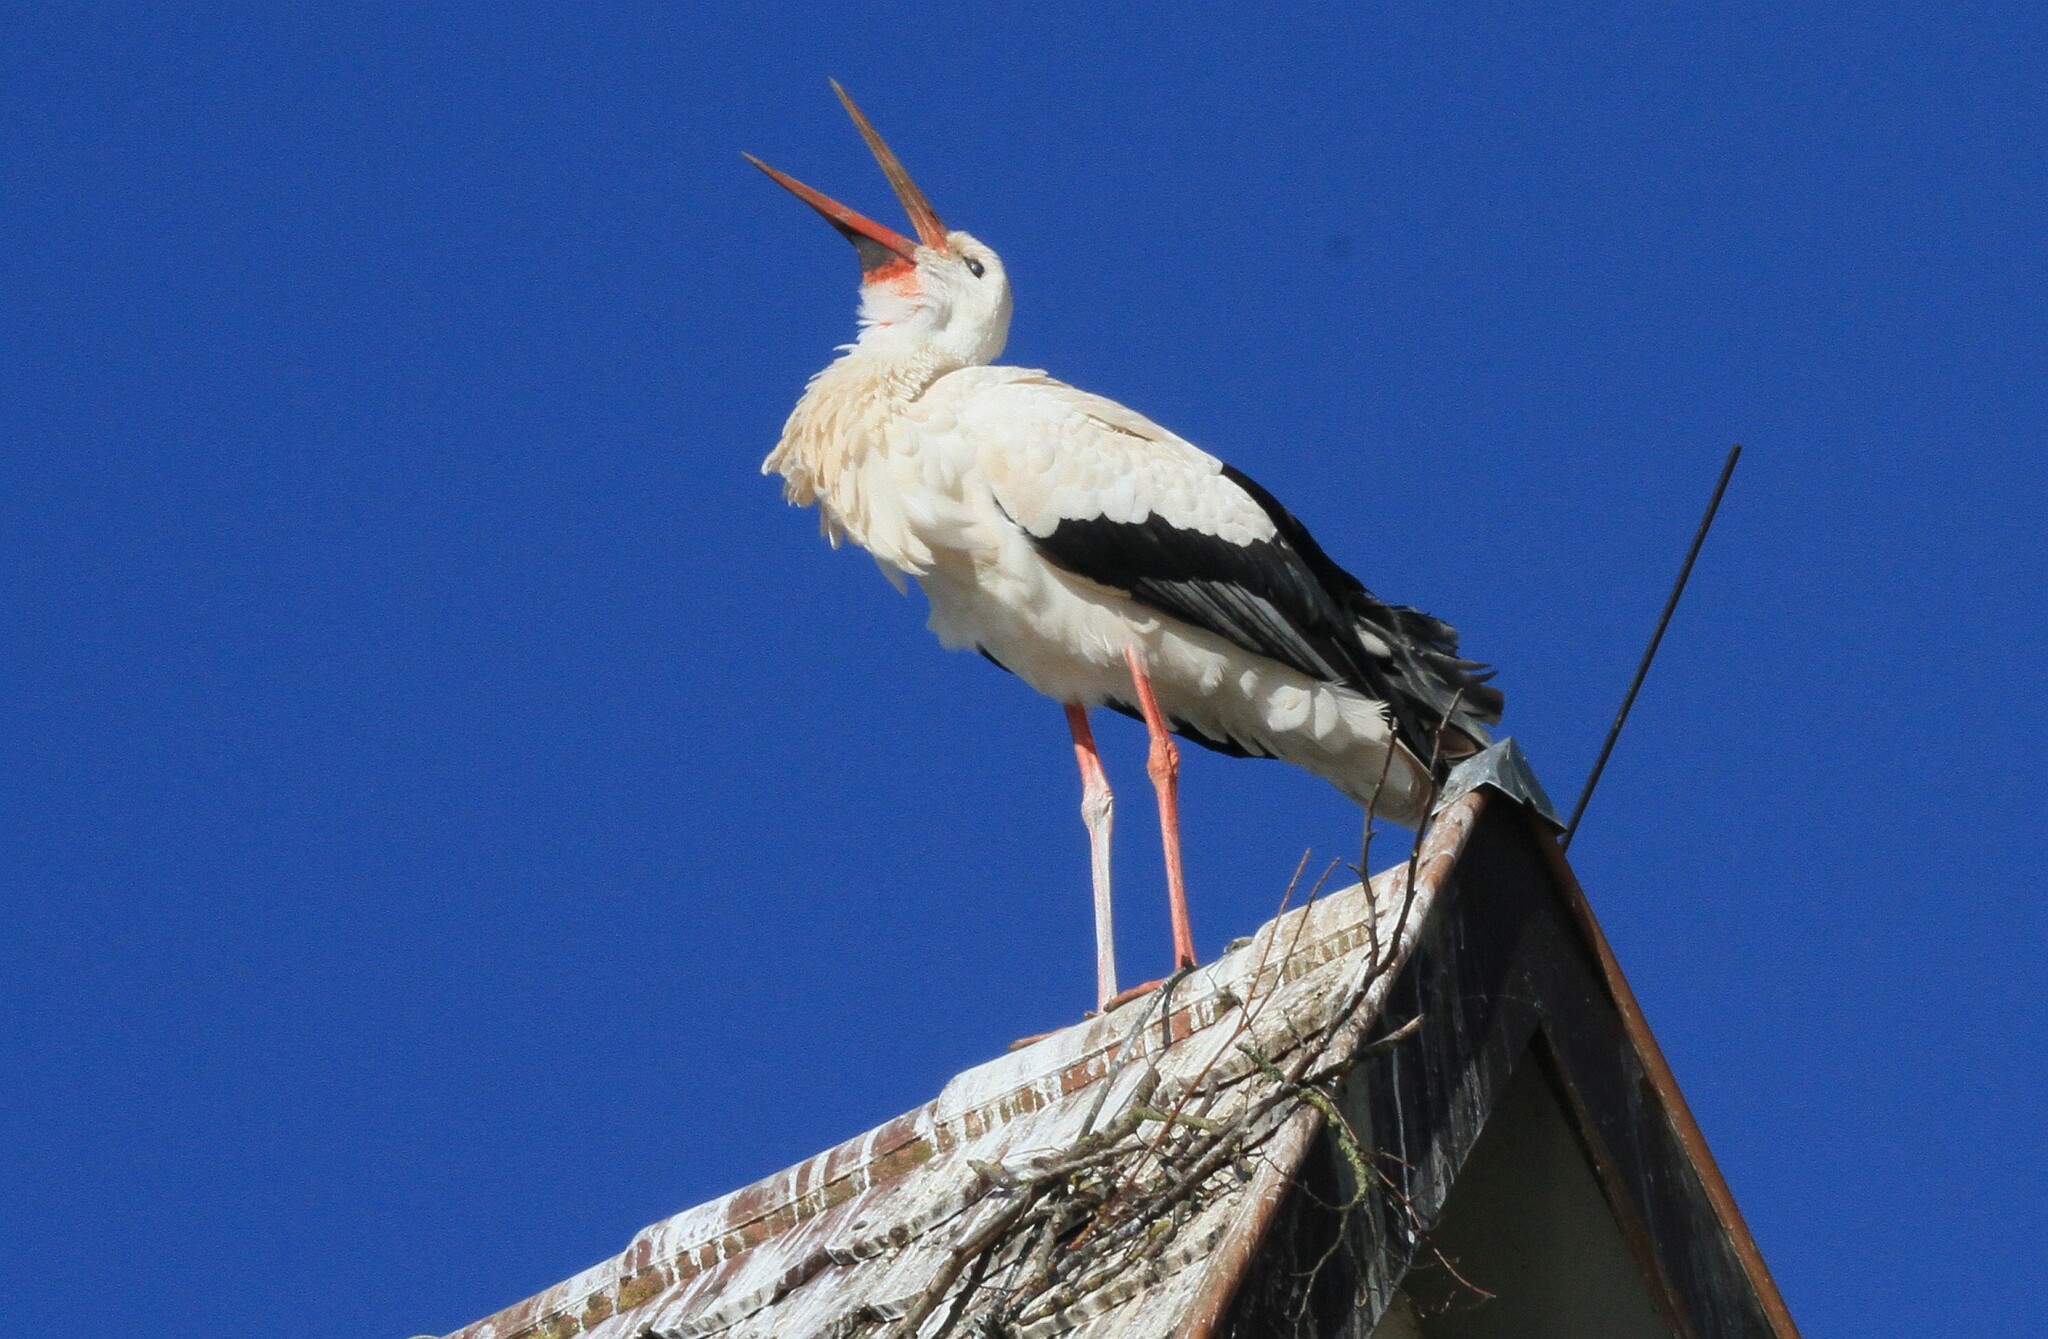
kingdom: Animalia
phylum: Chordata
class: Aves
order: Ciconiiformes
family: Ciconiidae
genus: Ciconia
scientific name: Ciconia ciconia
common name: White stork
